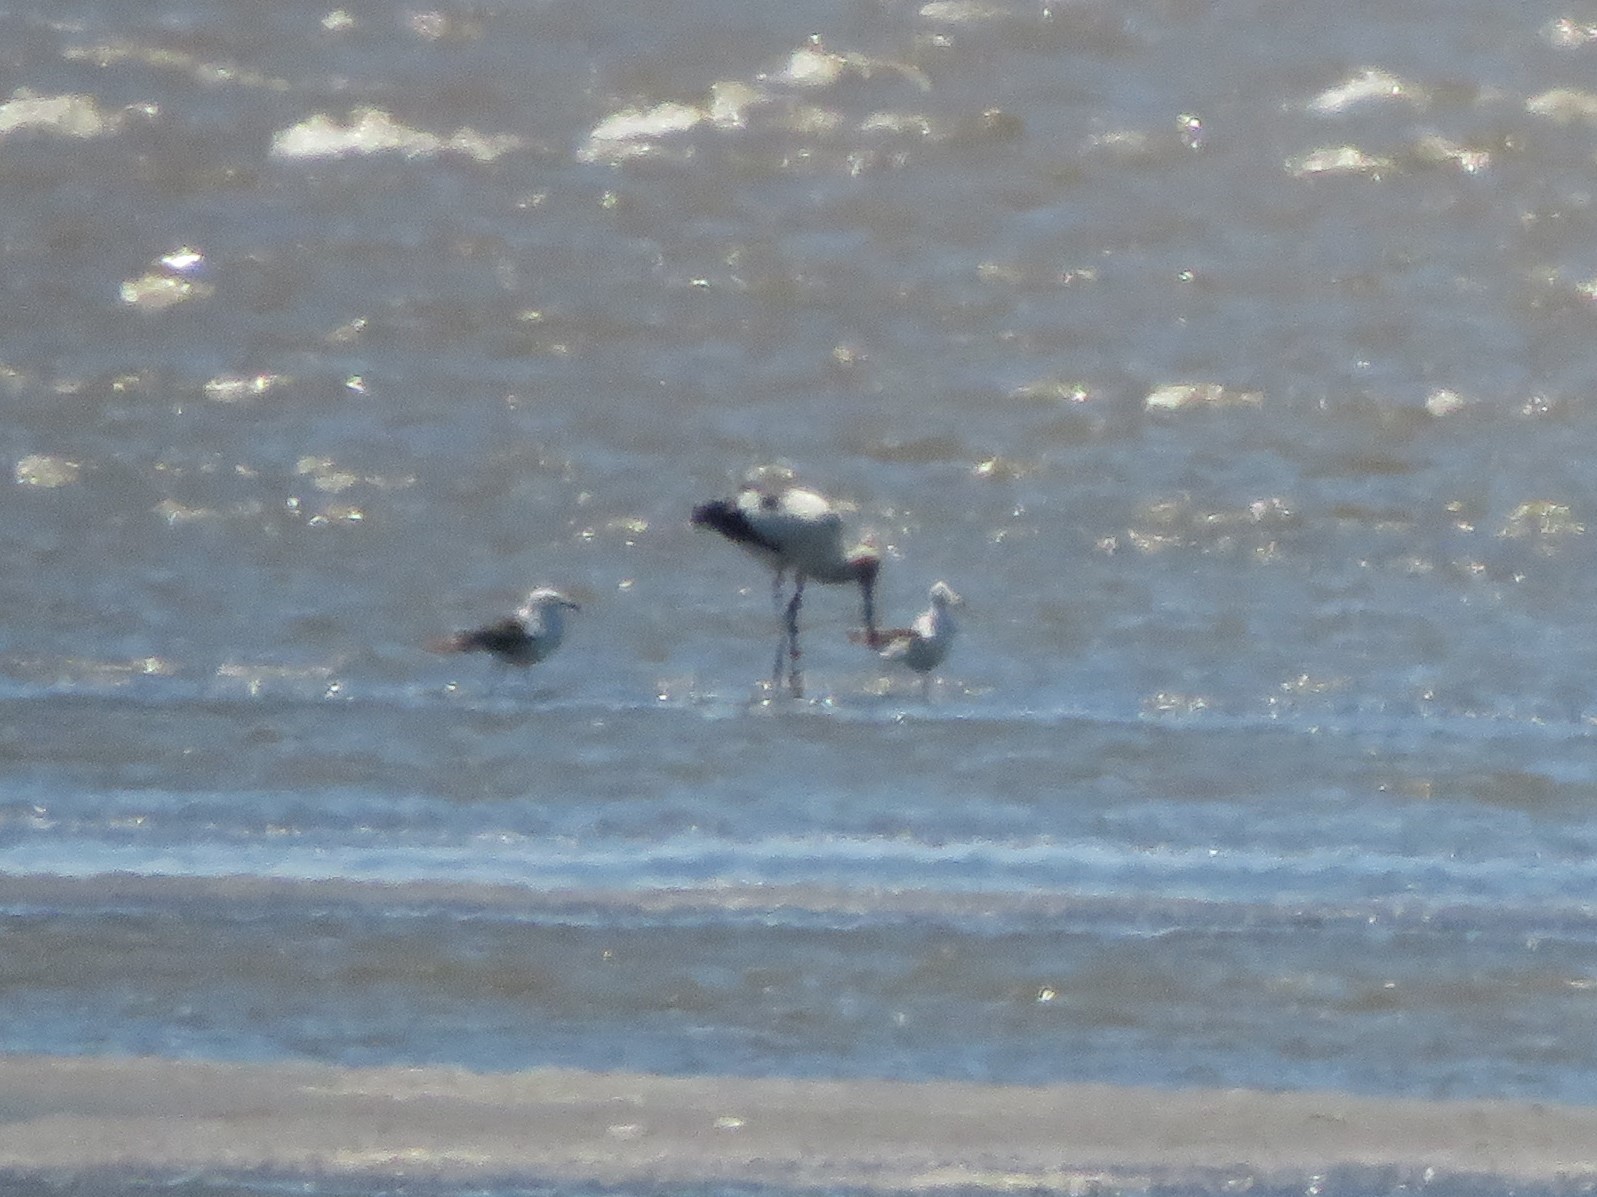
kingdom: Animalia
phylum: Chordata
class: Aves
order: Ciconiiformes
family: Ciconiidae
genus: Ciconia
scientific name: Ciconia maguari
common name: Maguari stork
